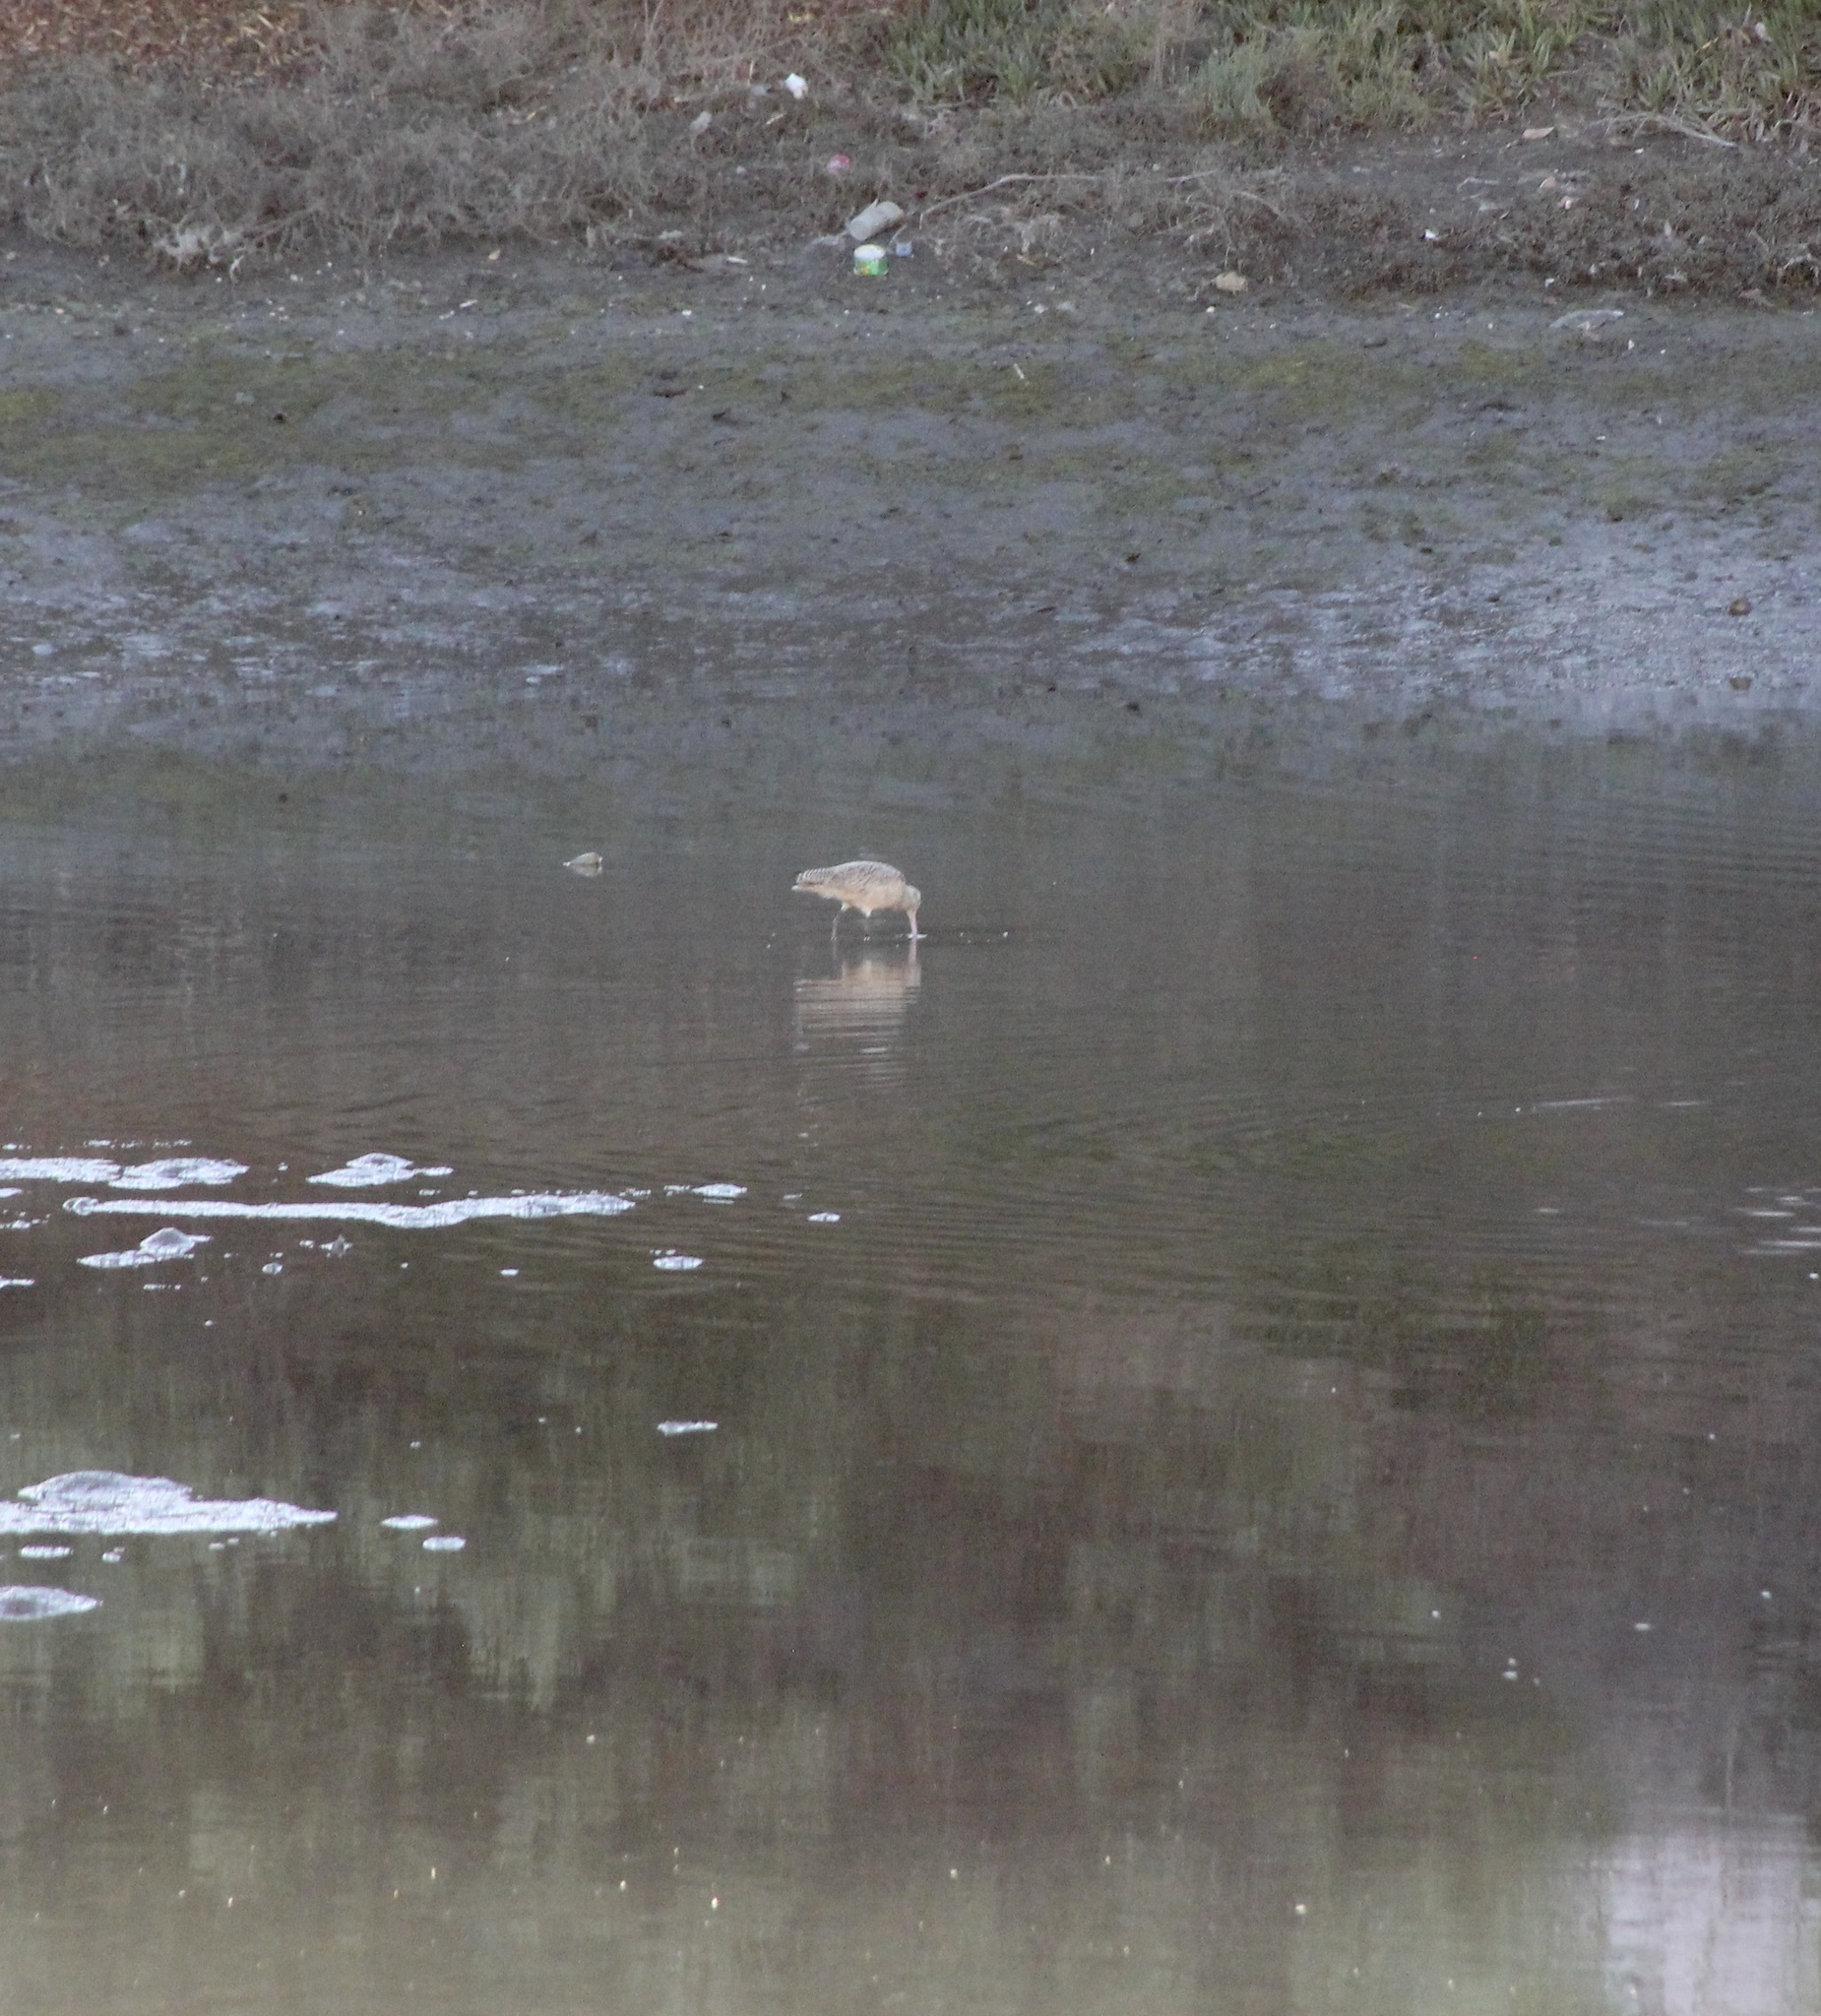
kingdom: Animalia
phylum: Chordata
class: Aves
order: Charadriiformes
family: Scolopacidae
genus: Limosa
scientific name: Limosa fedoa
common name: Marbled godwit
